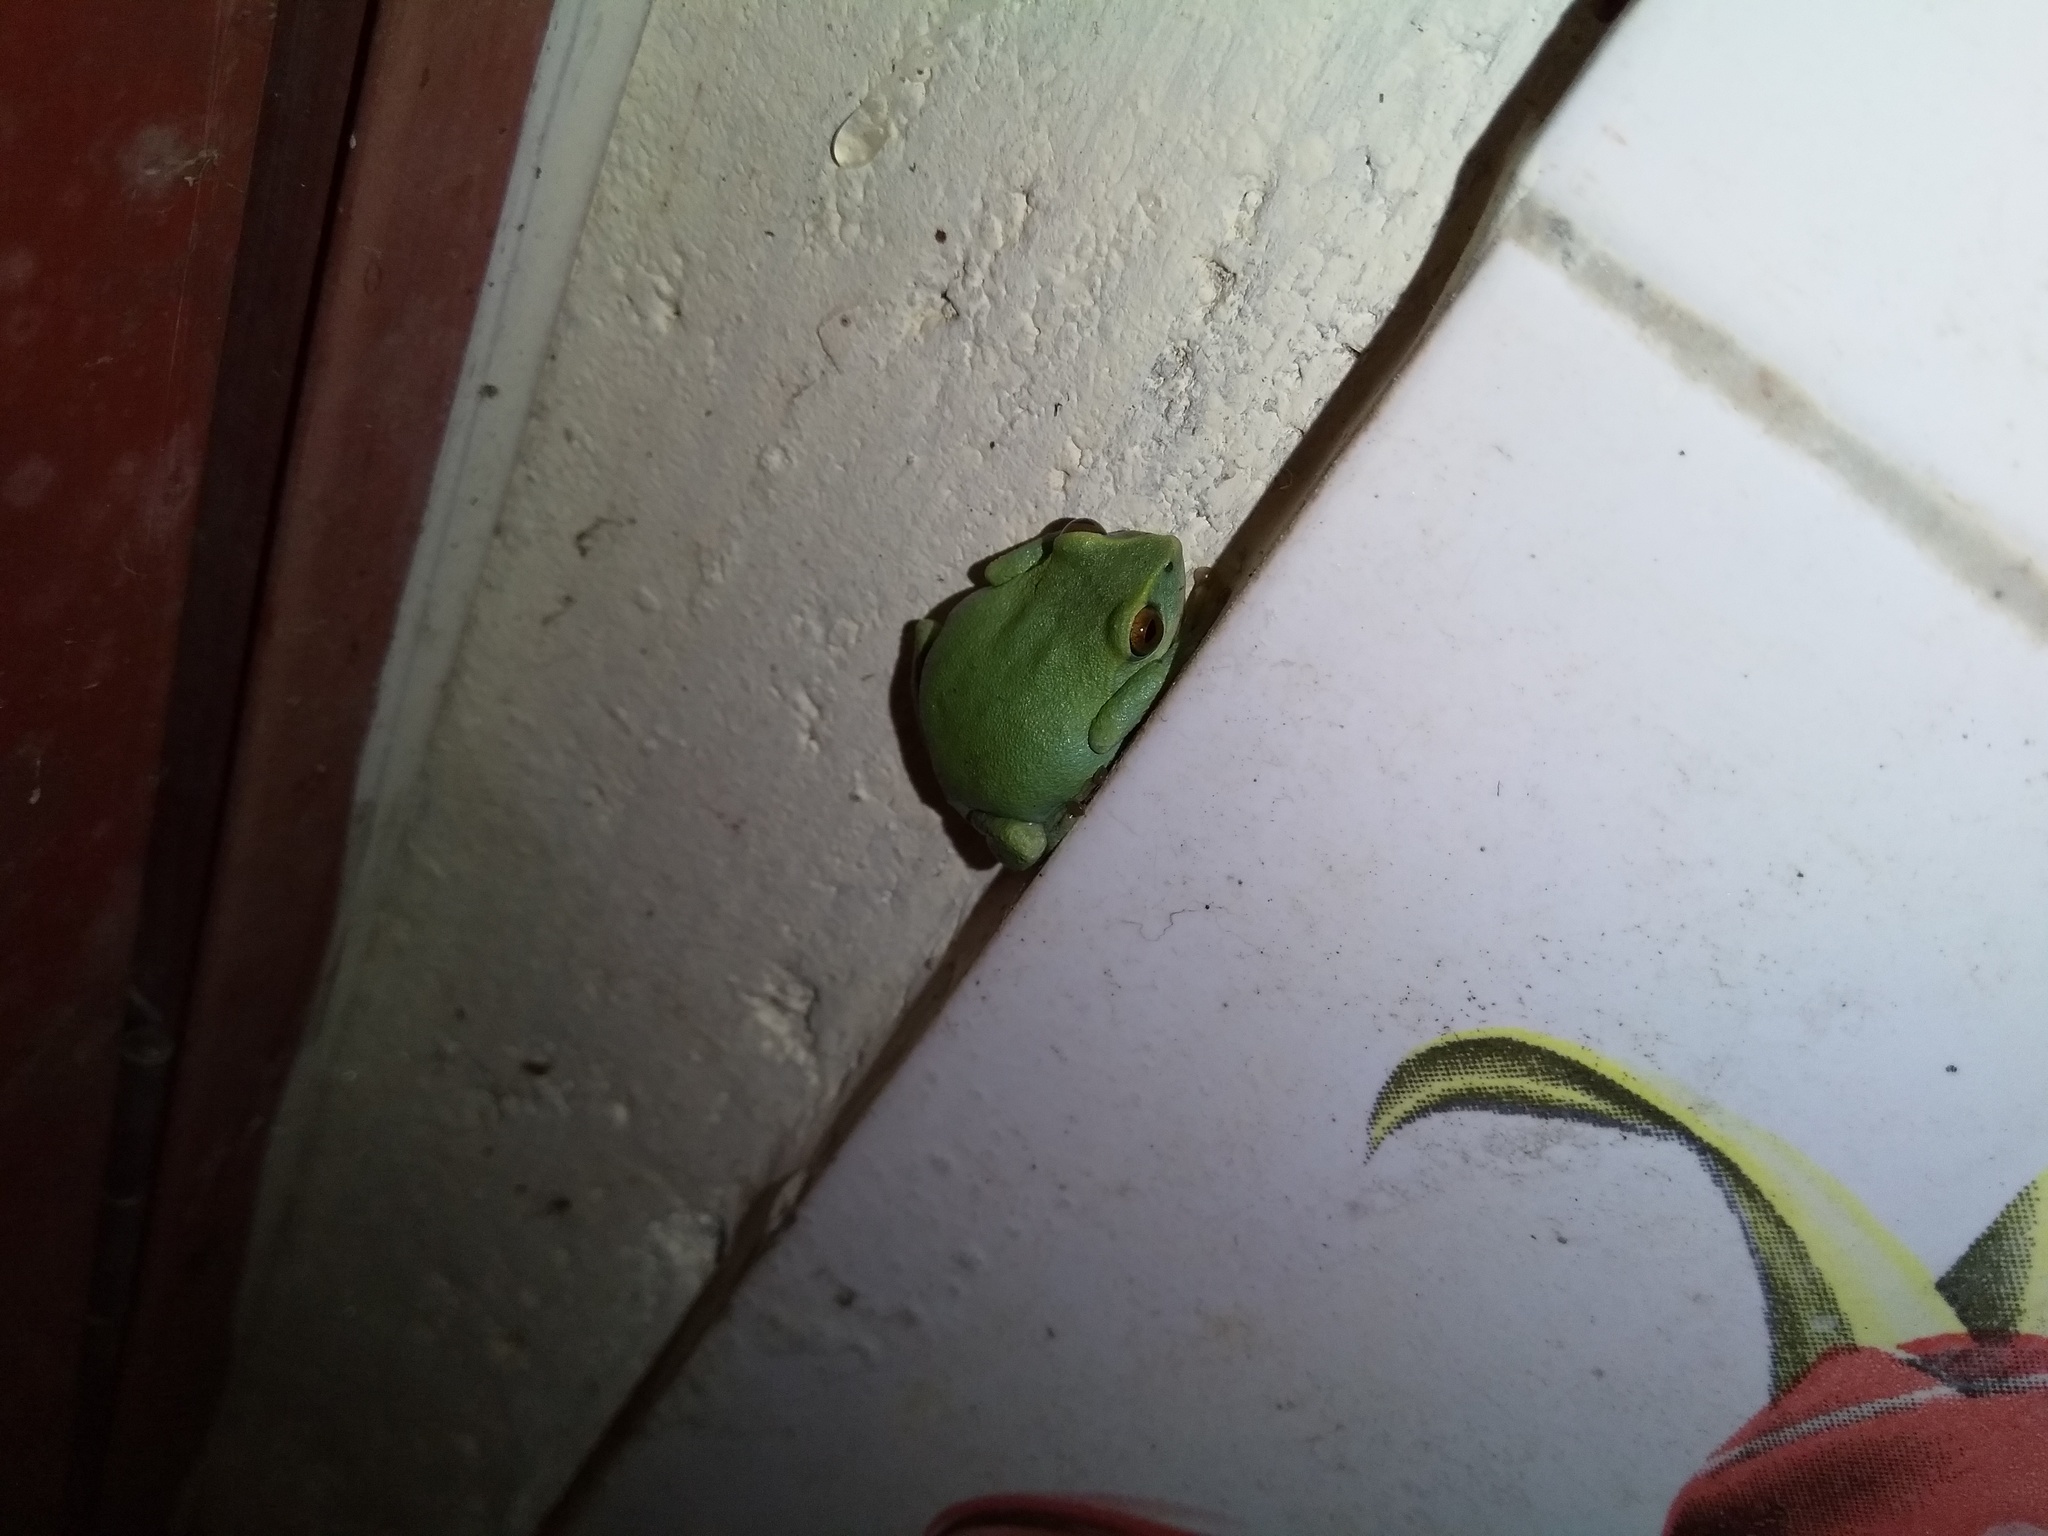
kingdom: Animalia
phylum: Chordata
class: Amphibia
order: Anura
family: Rhacophoridae
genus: Raorchestes
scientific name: Raorchestes beddomii
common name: Beddome's bush frog
